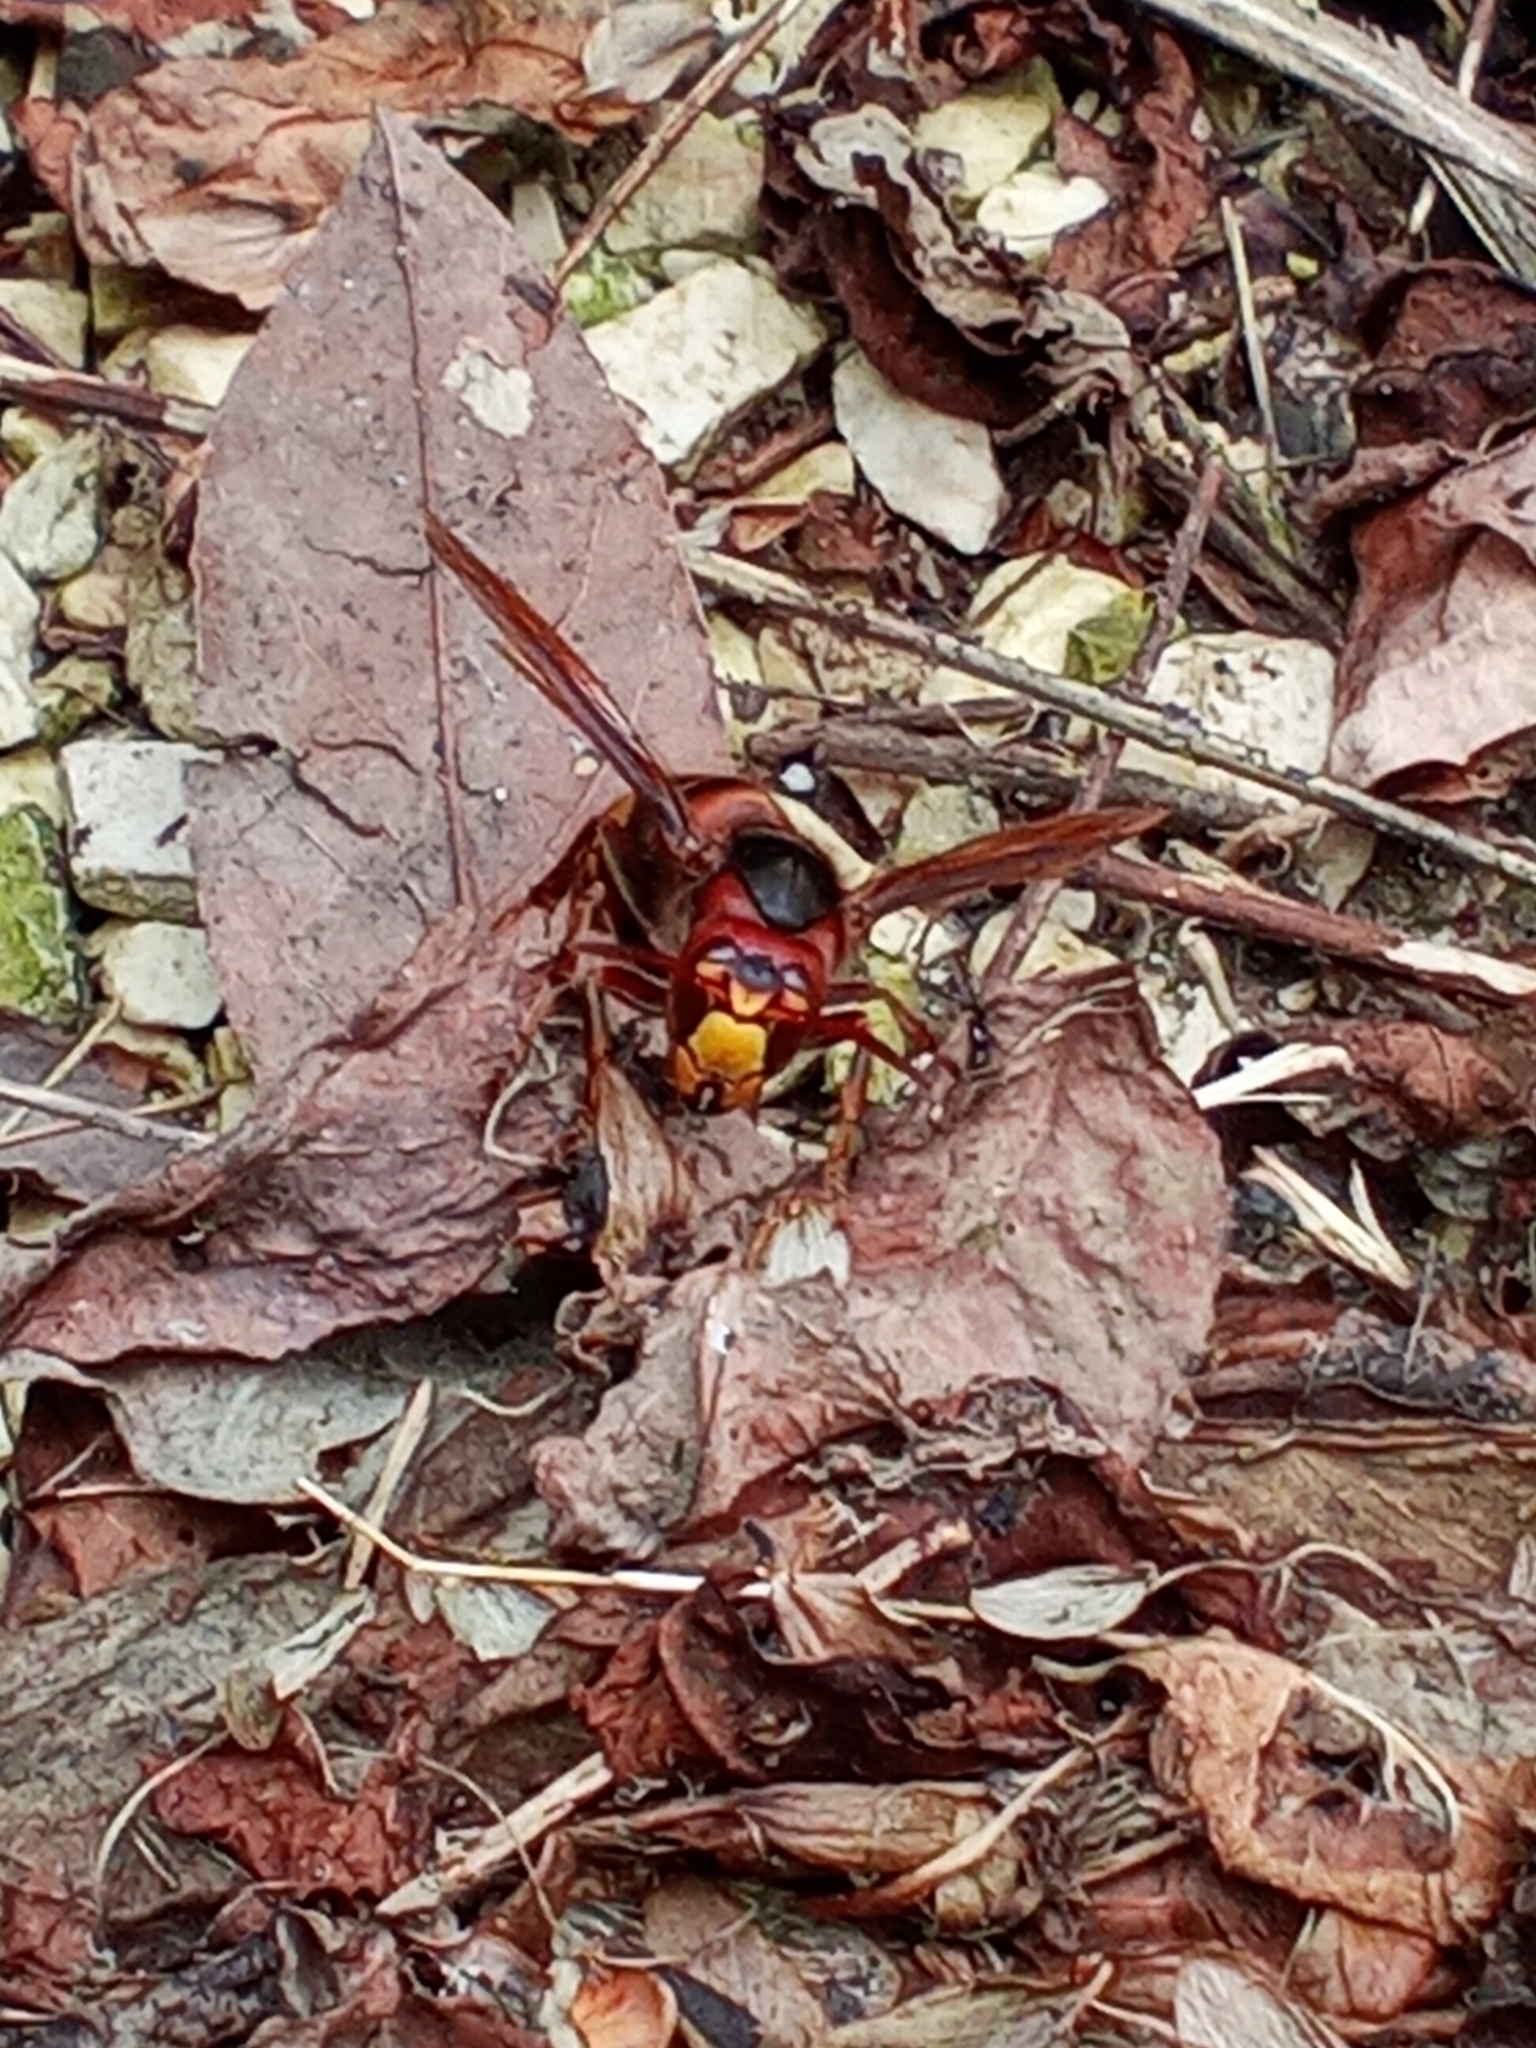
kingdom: Animalia
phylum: Arthropoda
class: Insecta
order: Hymenoptera
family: Vespidae
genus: Vespa
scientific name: Vespa crabro
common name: Hornet
